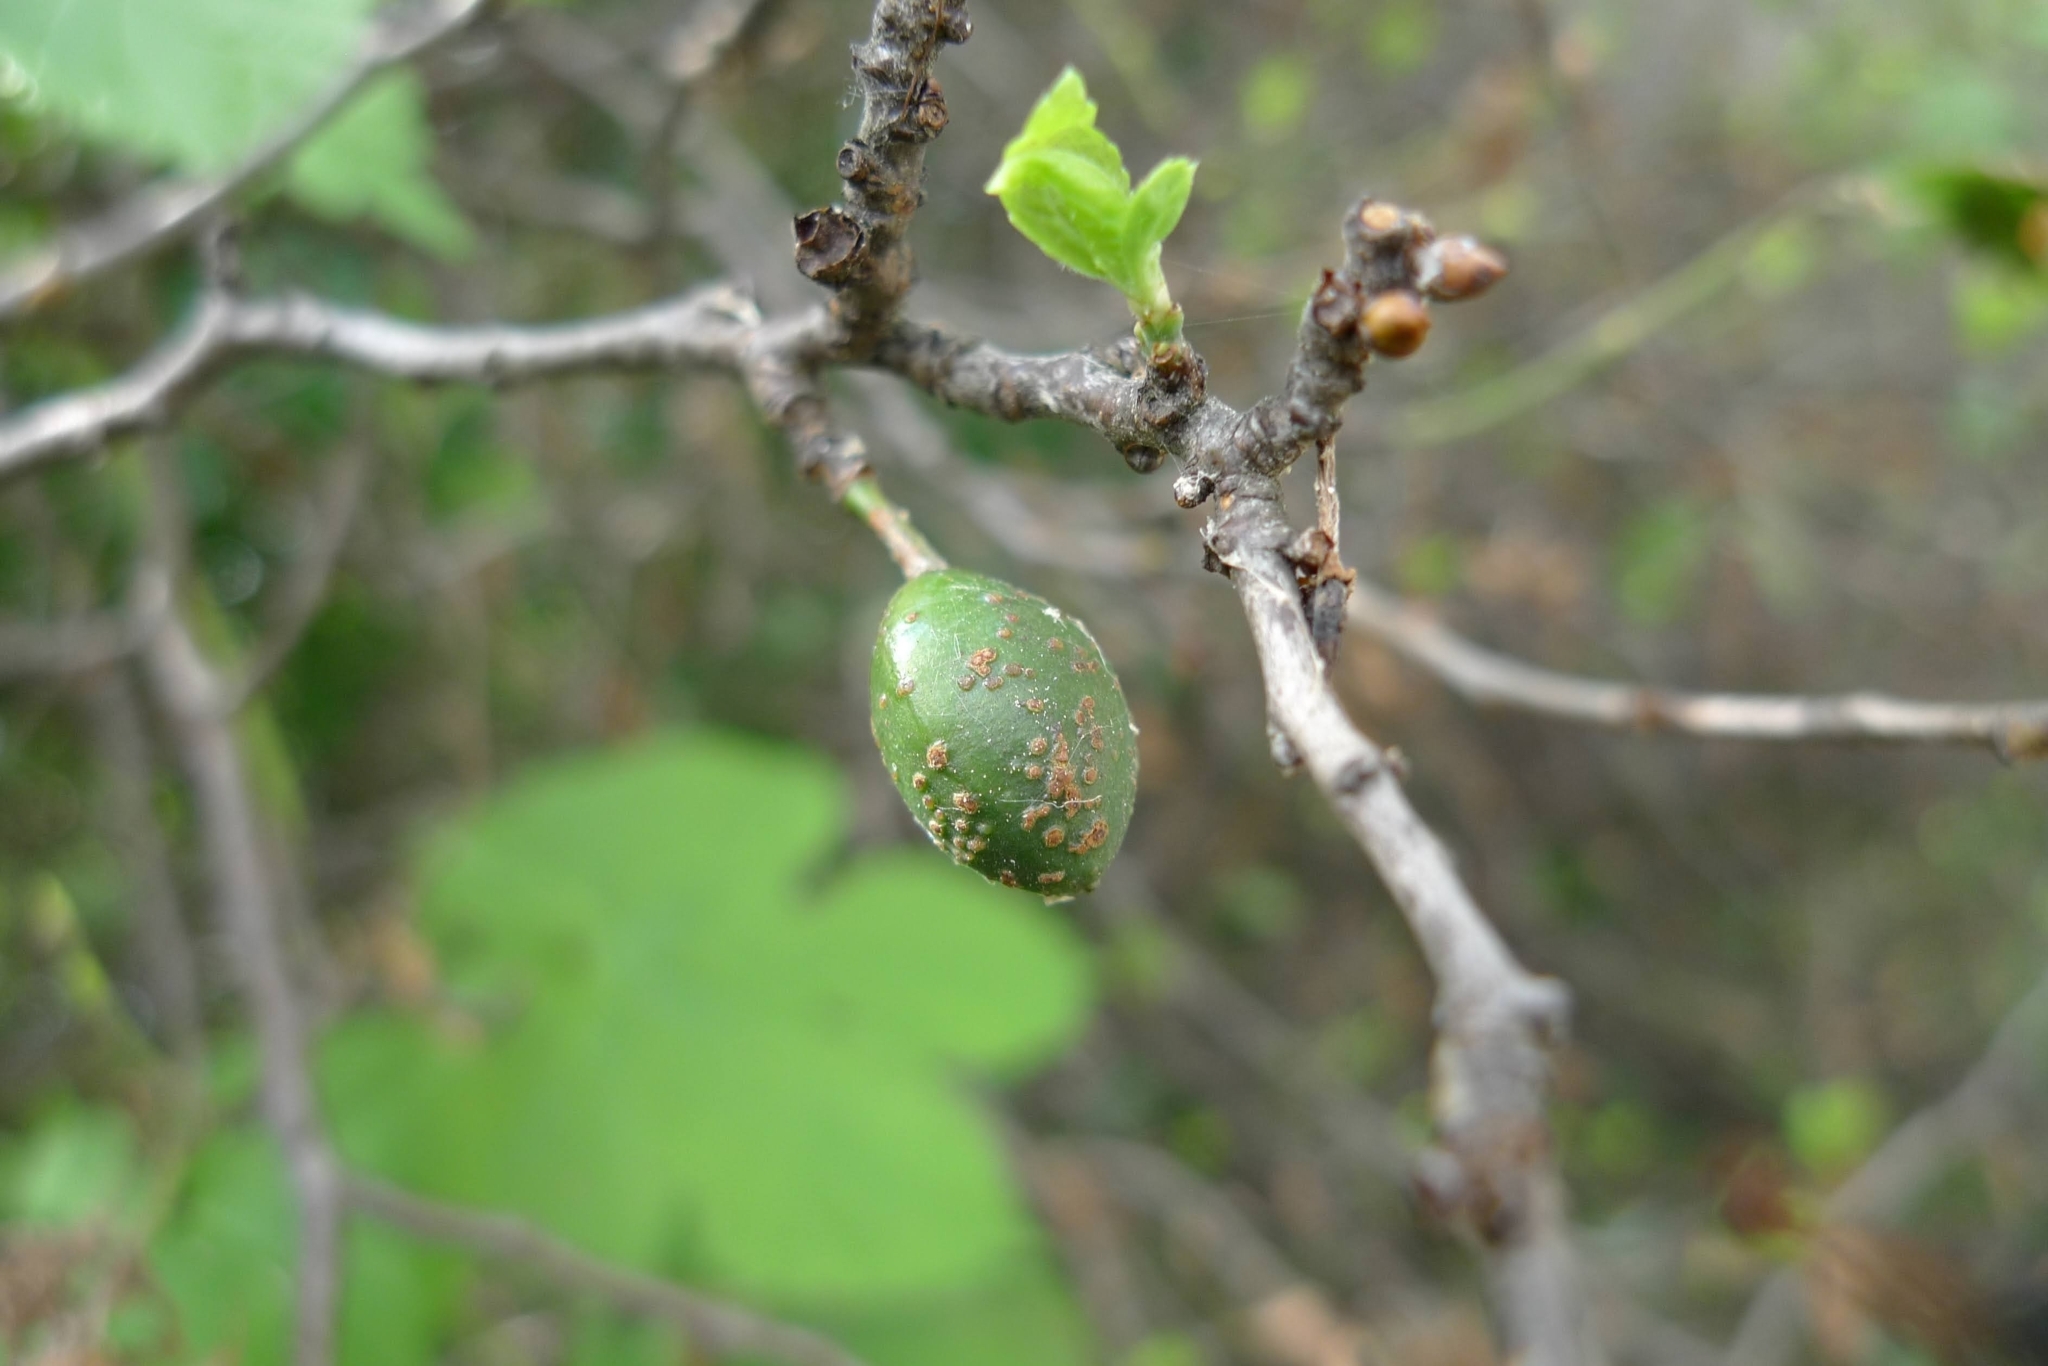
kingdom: Plantae
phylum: Tracheophyta
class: Magnoliopsida
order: Rosales
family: Rosaceae
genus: Prunus
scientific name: Prunus spinosa
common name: Blackthorn
